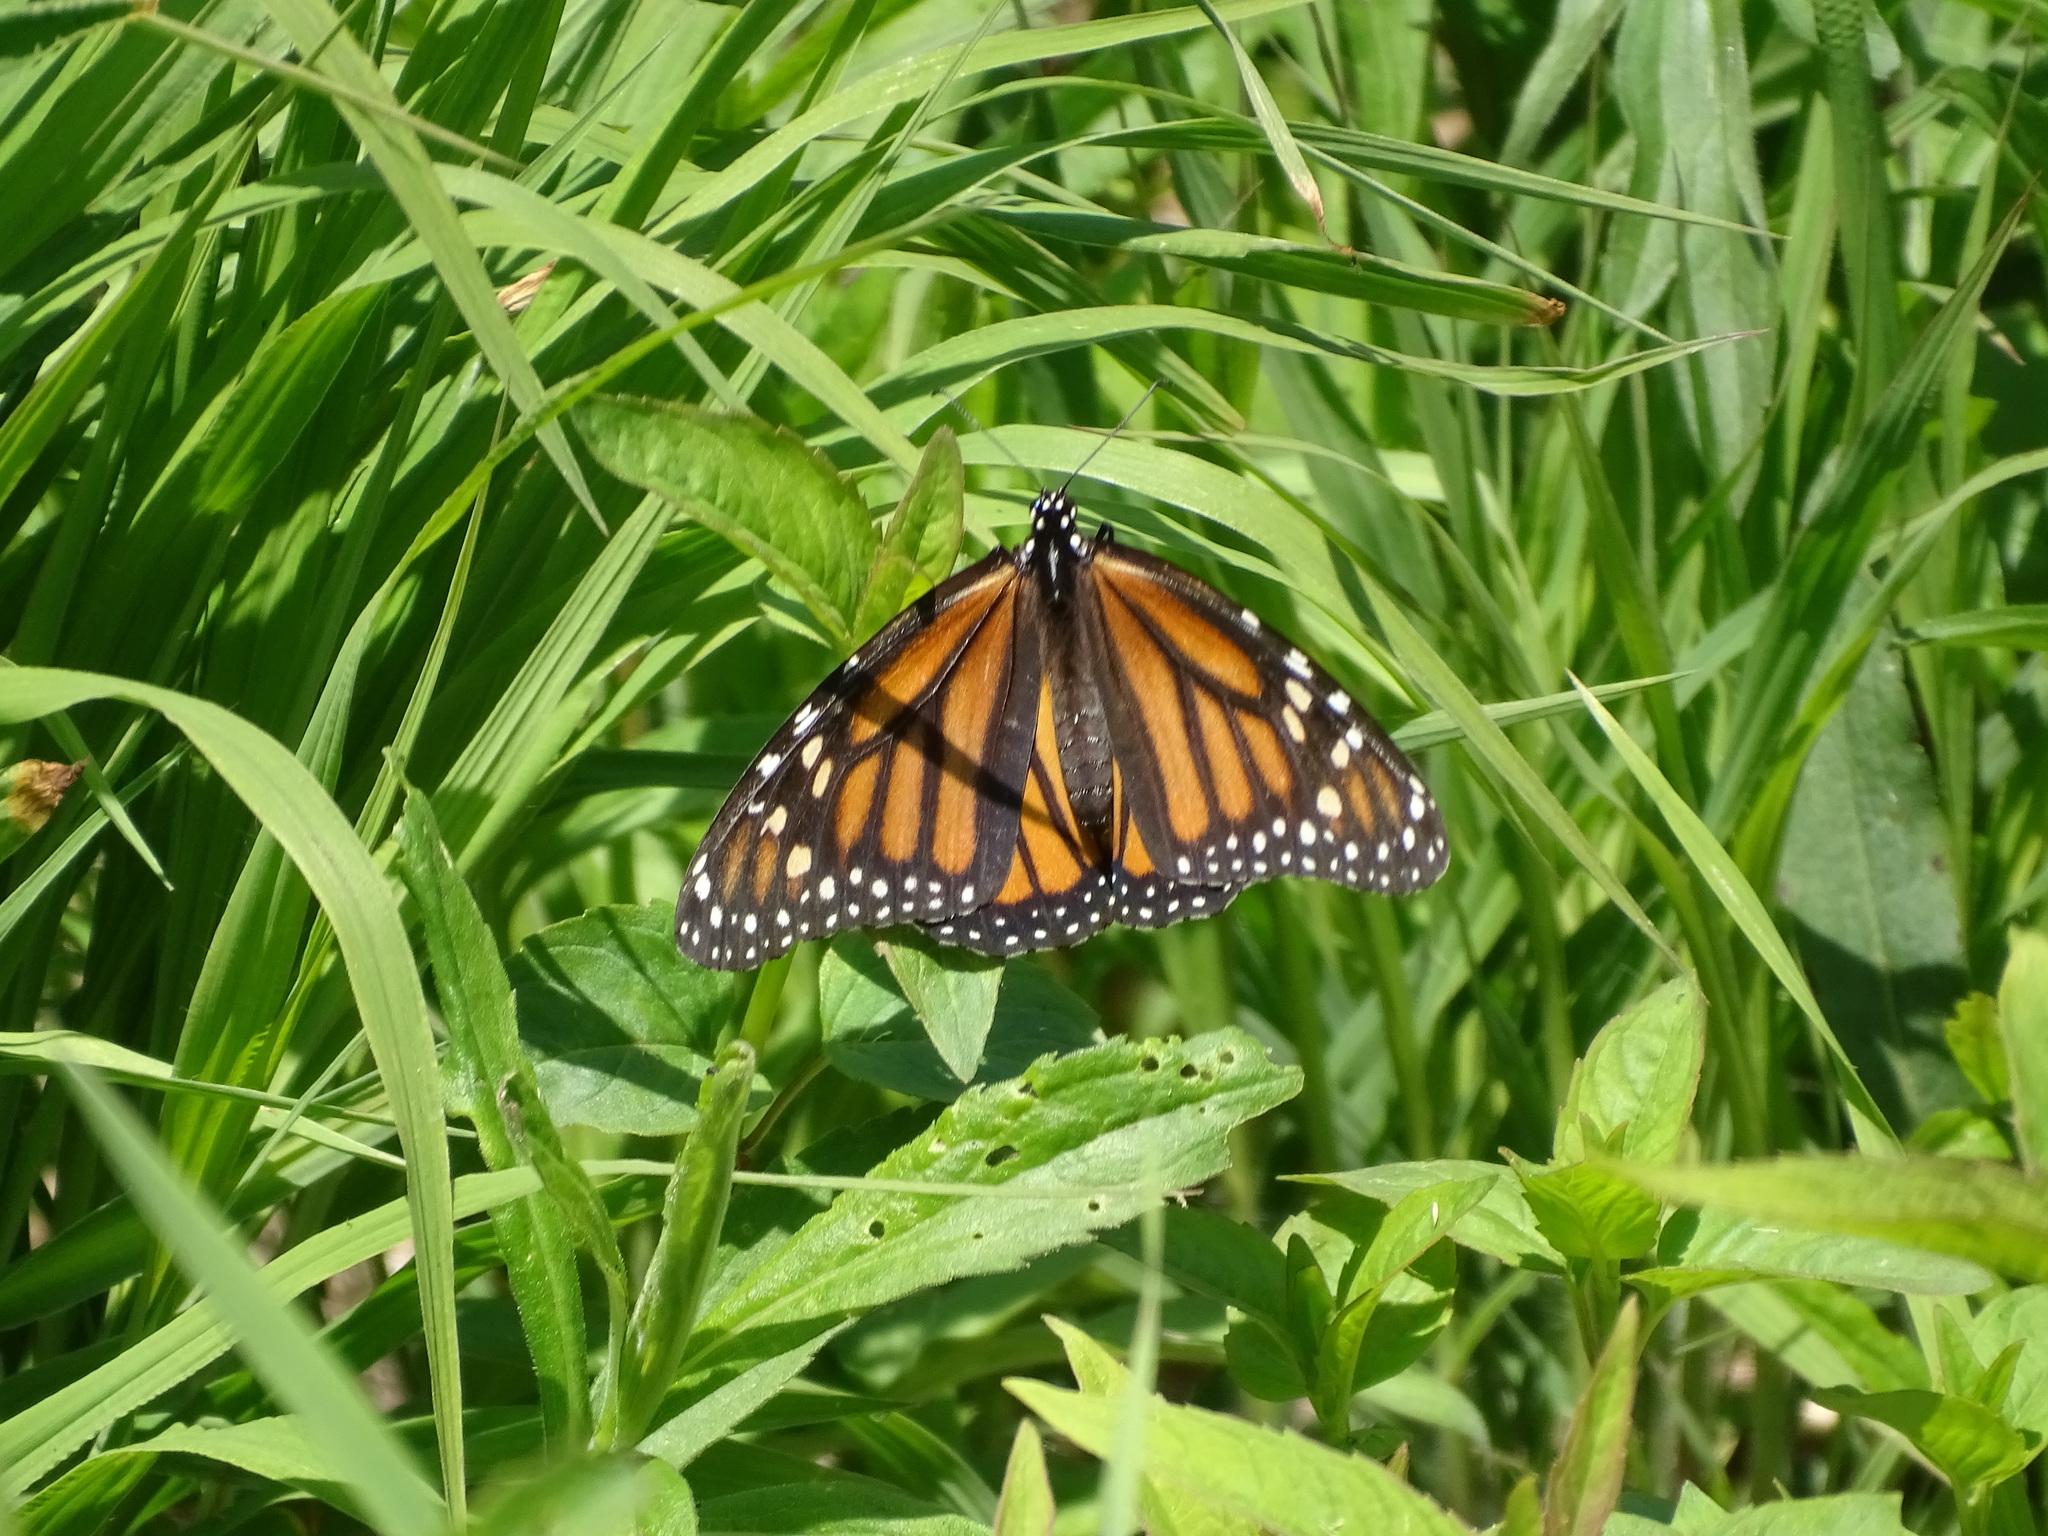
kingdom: Animalia
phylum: Arthropoda
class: Insecta
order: Lepidoptera
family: Nymphalidae
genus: Danaus
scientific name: Danaus plexippus
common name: Monarch
